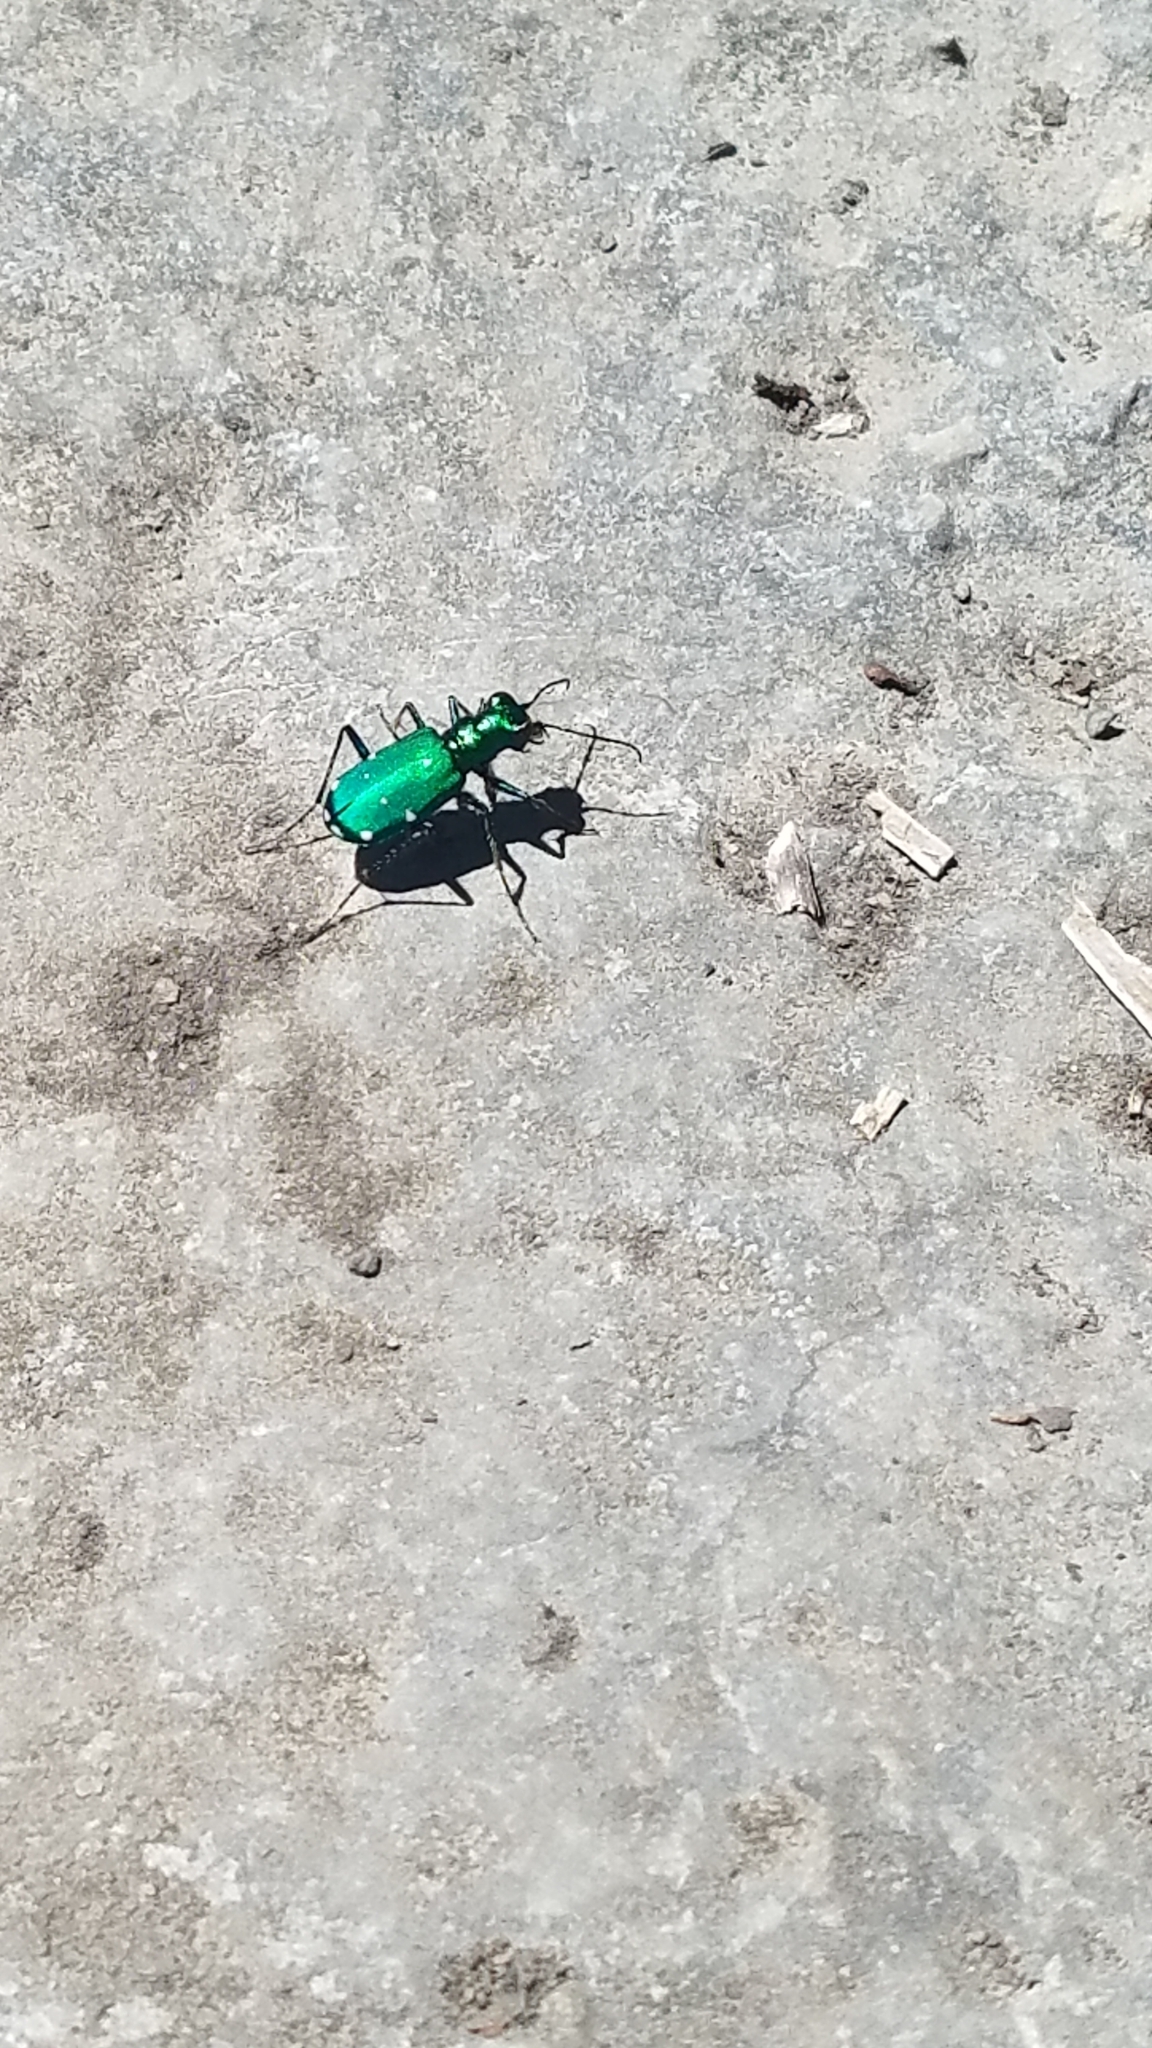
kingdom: Animalia
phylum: Arthropoda
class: Insecta
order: Coleoptera
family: Carabidae
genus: Cicindela
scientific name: Cicindela sexguttata
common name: Six-spotted tiger beetle
